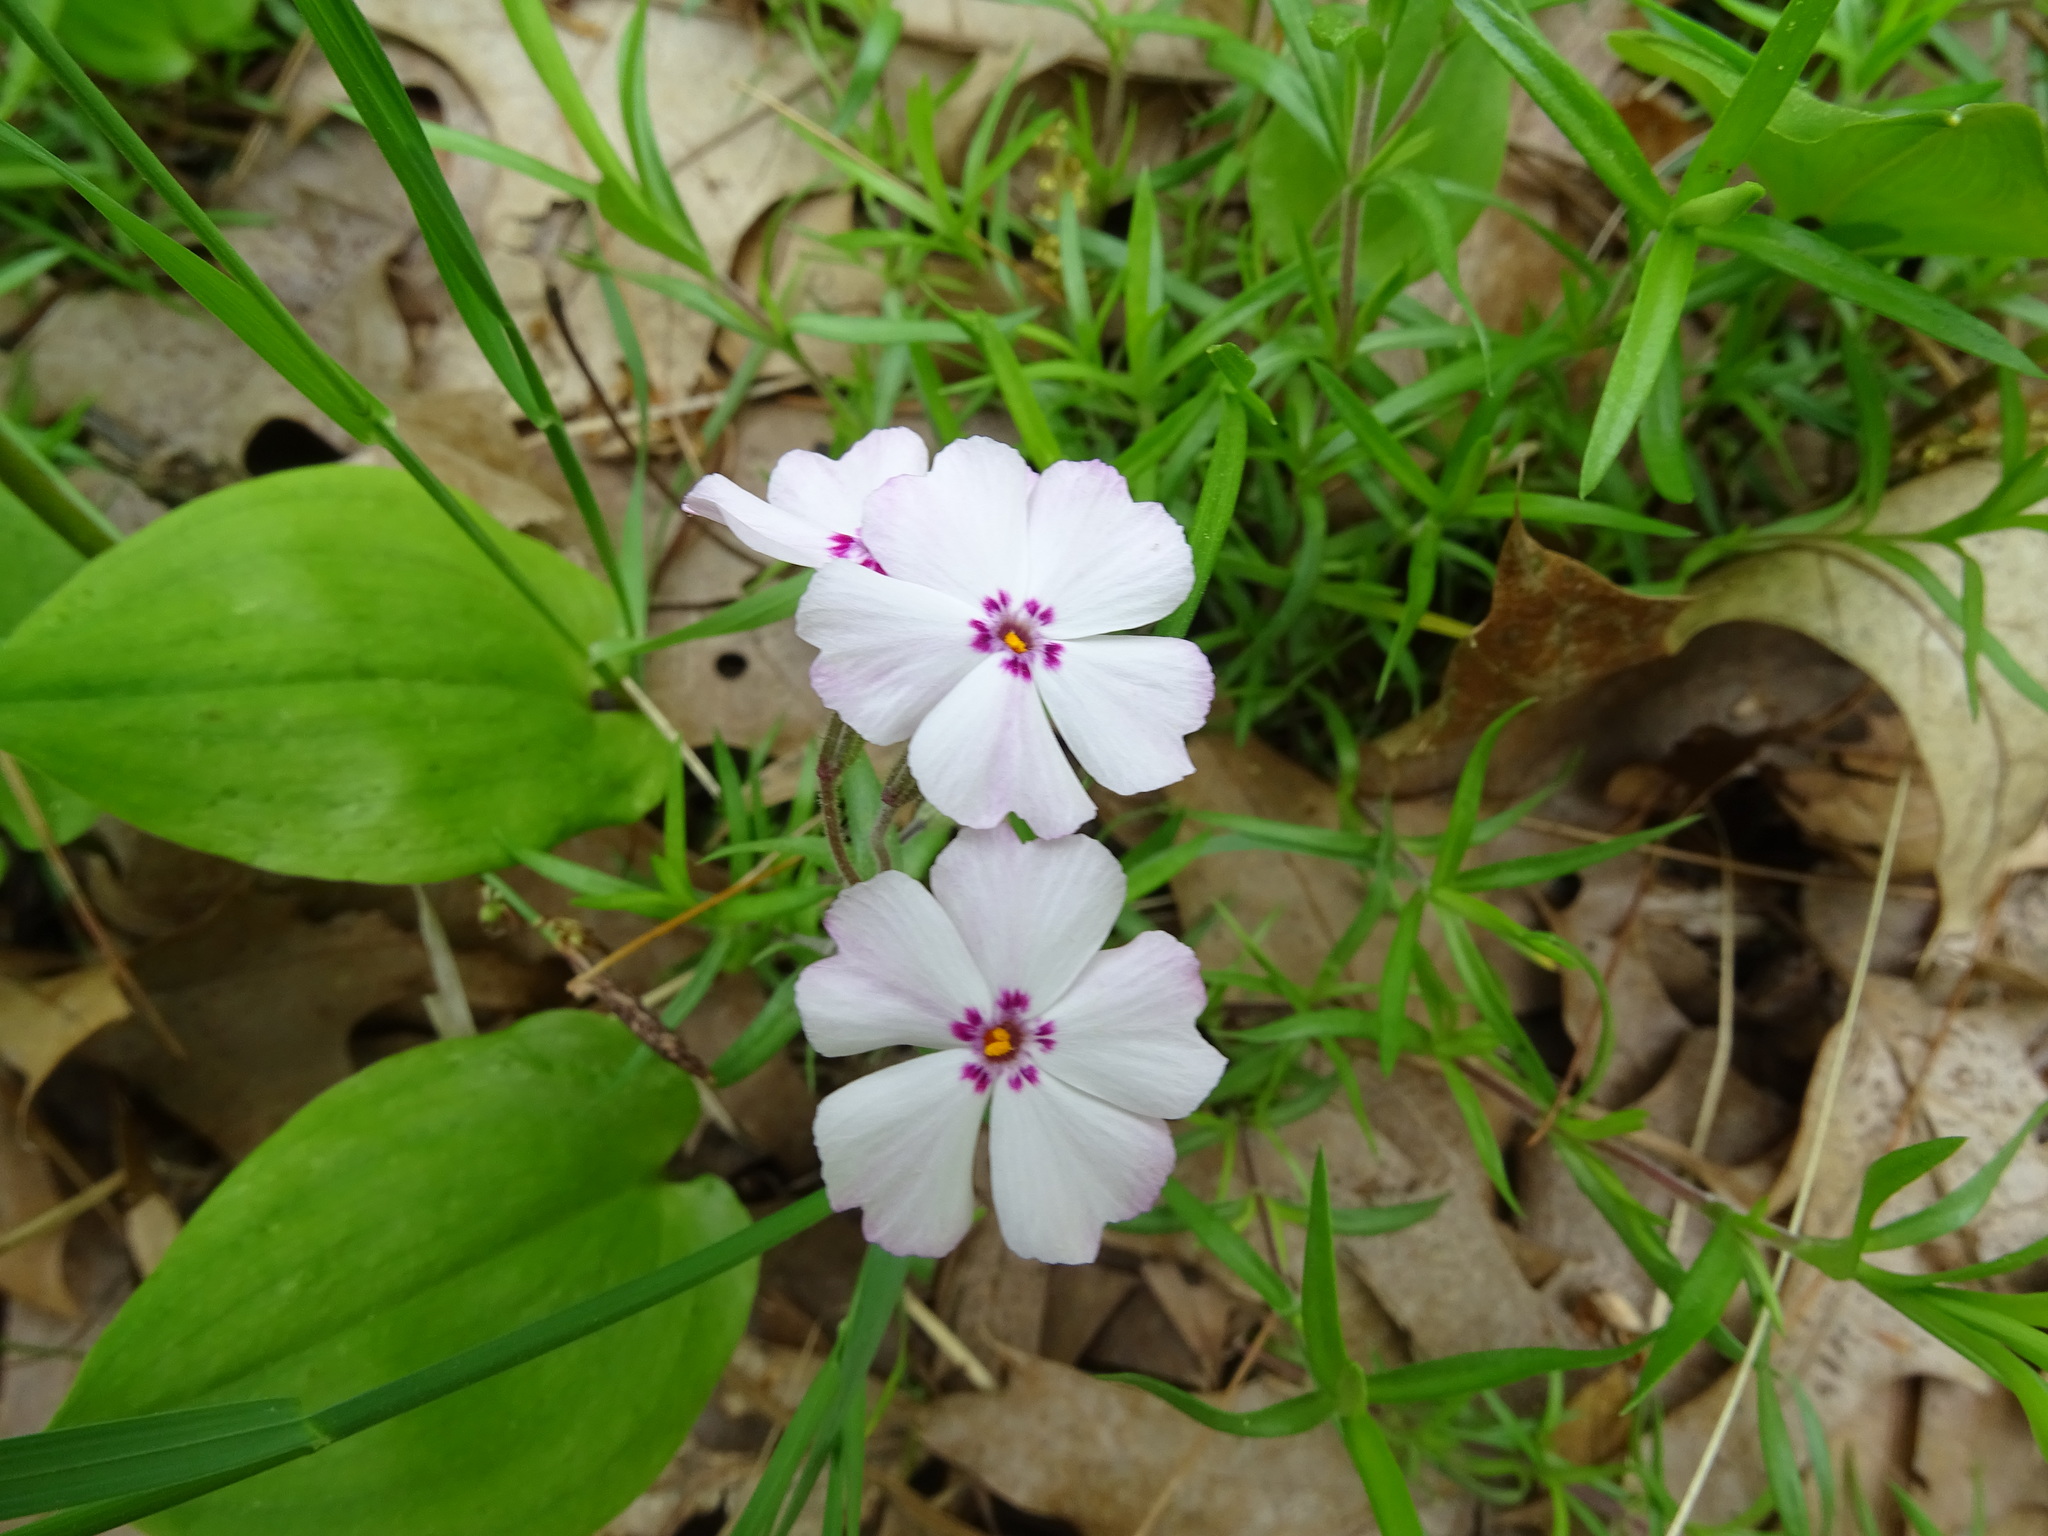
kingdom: Plantae
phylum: Tracheophyta
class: Magnoliopsida
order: Ericales
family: Polemoniaceae
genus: Phlox
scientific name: Phlox subulata
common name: Moss phlox
